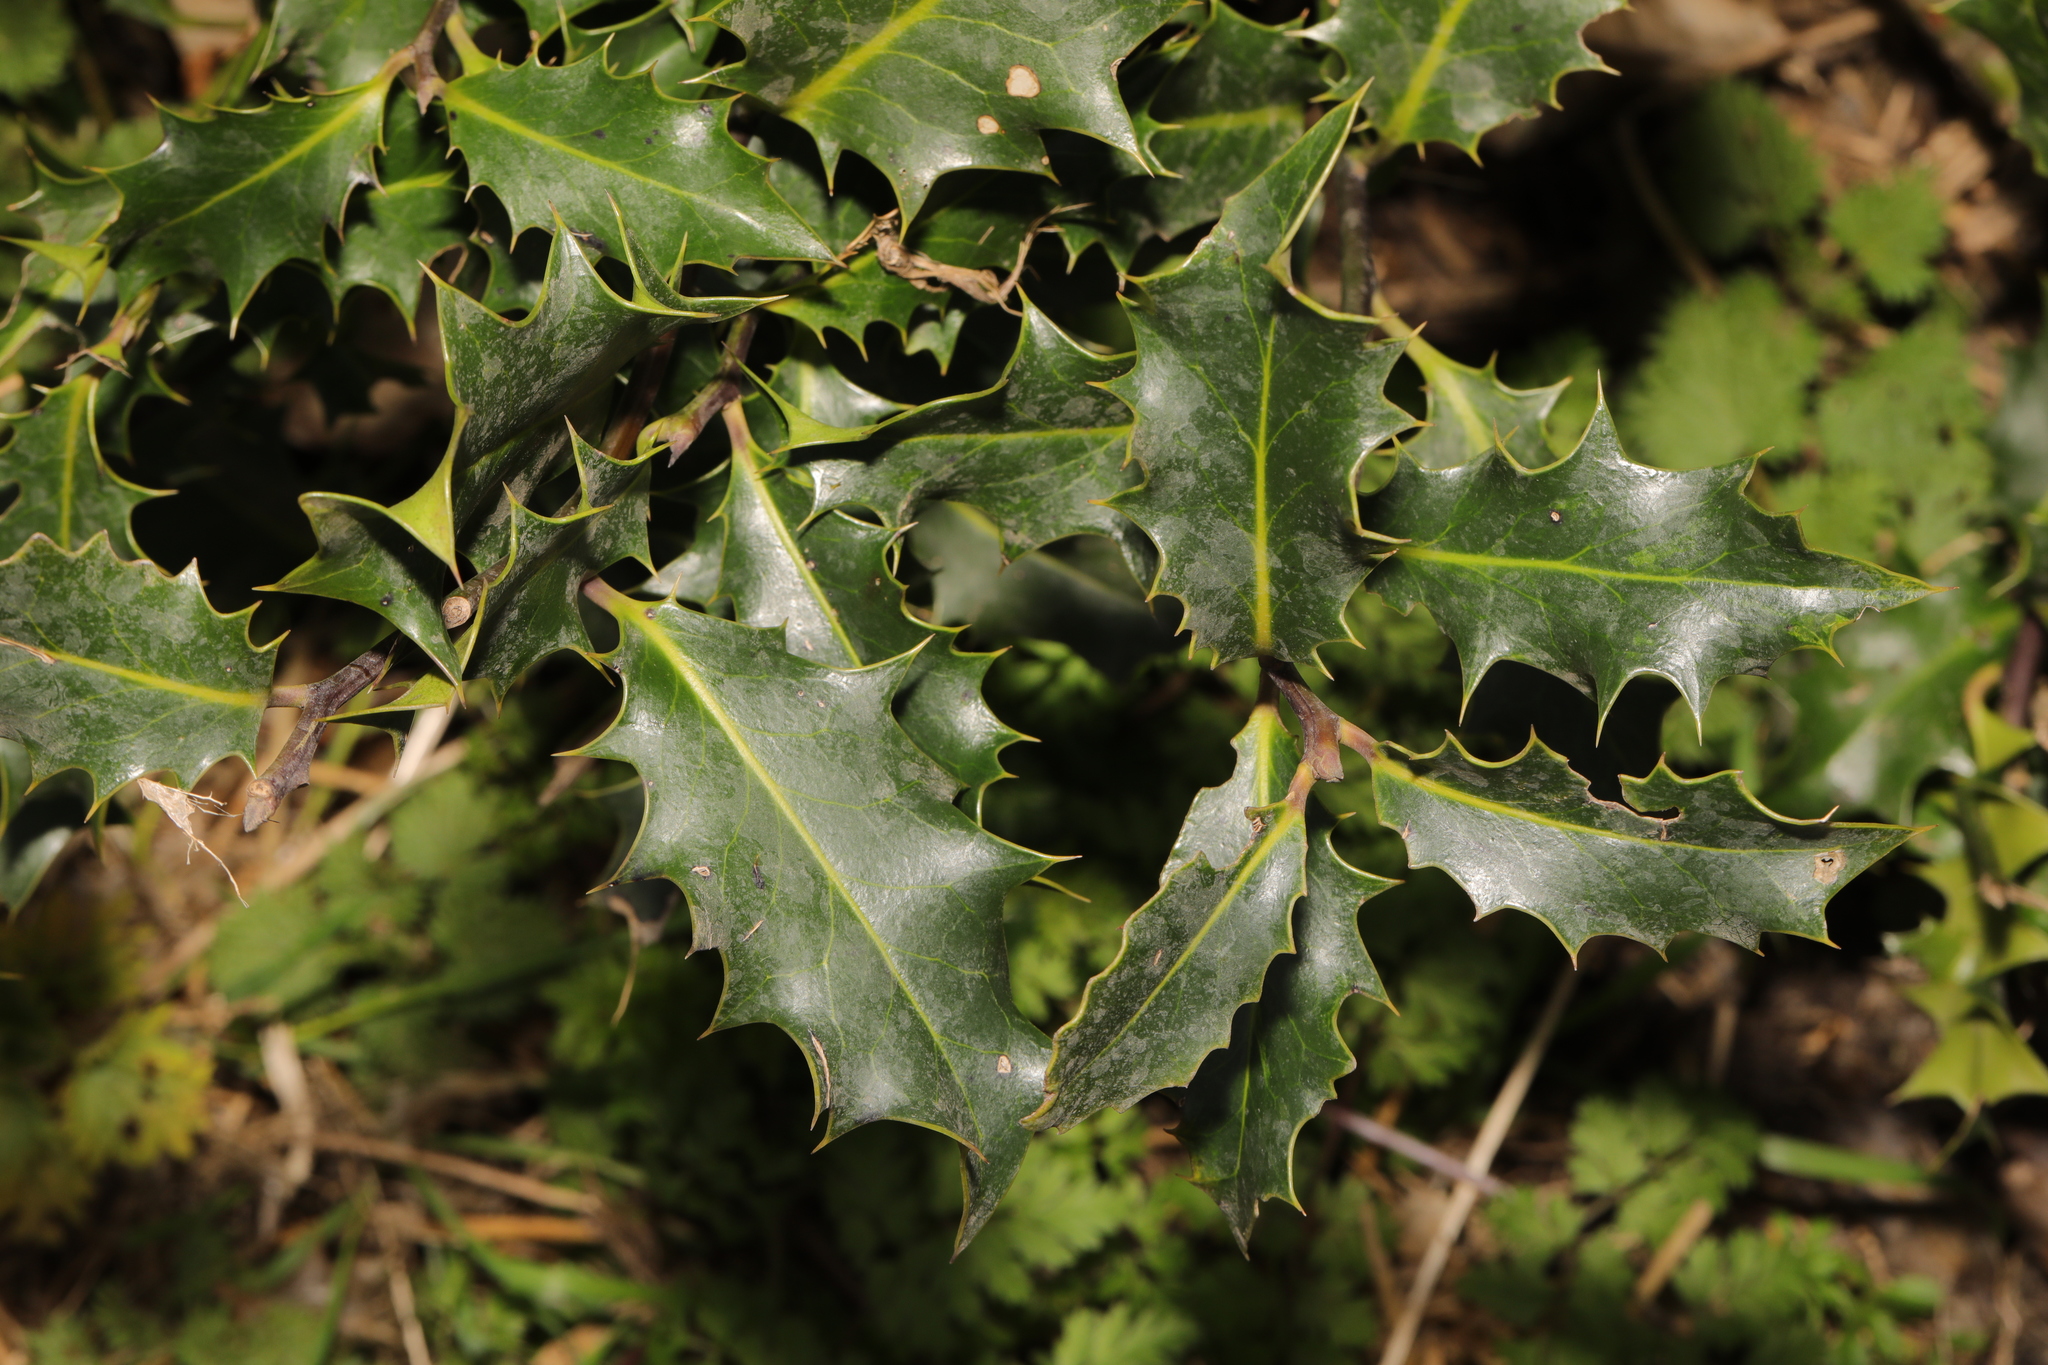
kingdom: Plantae
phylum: Tracheophyta
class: Magnoliopsida
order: Aquifoliales
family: Aquifoliaceae
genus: Ilex
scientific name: Ilex aquifolium
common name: English holly
